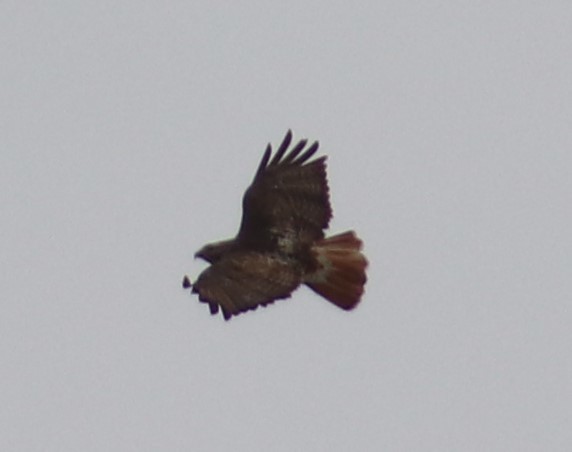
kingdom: Animalia
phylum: Chordata
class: Aves
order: Accipitriformes
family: Accipitridae
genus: Buteo
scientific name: Buteo jamaicensis
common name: Red-tailed hawk
